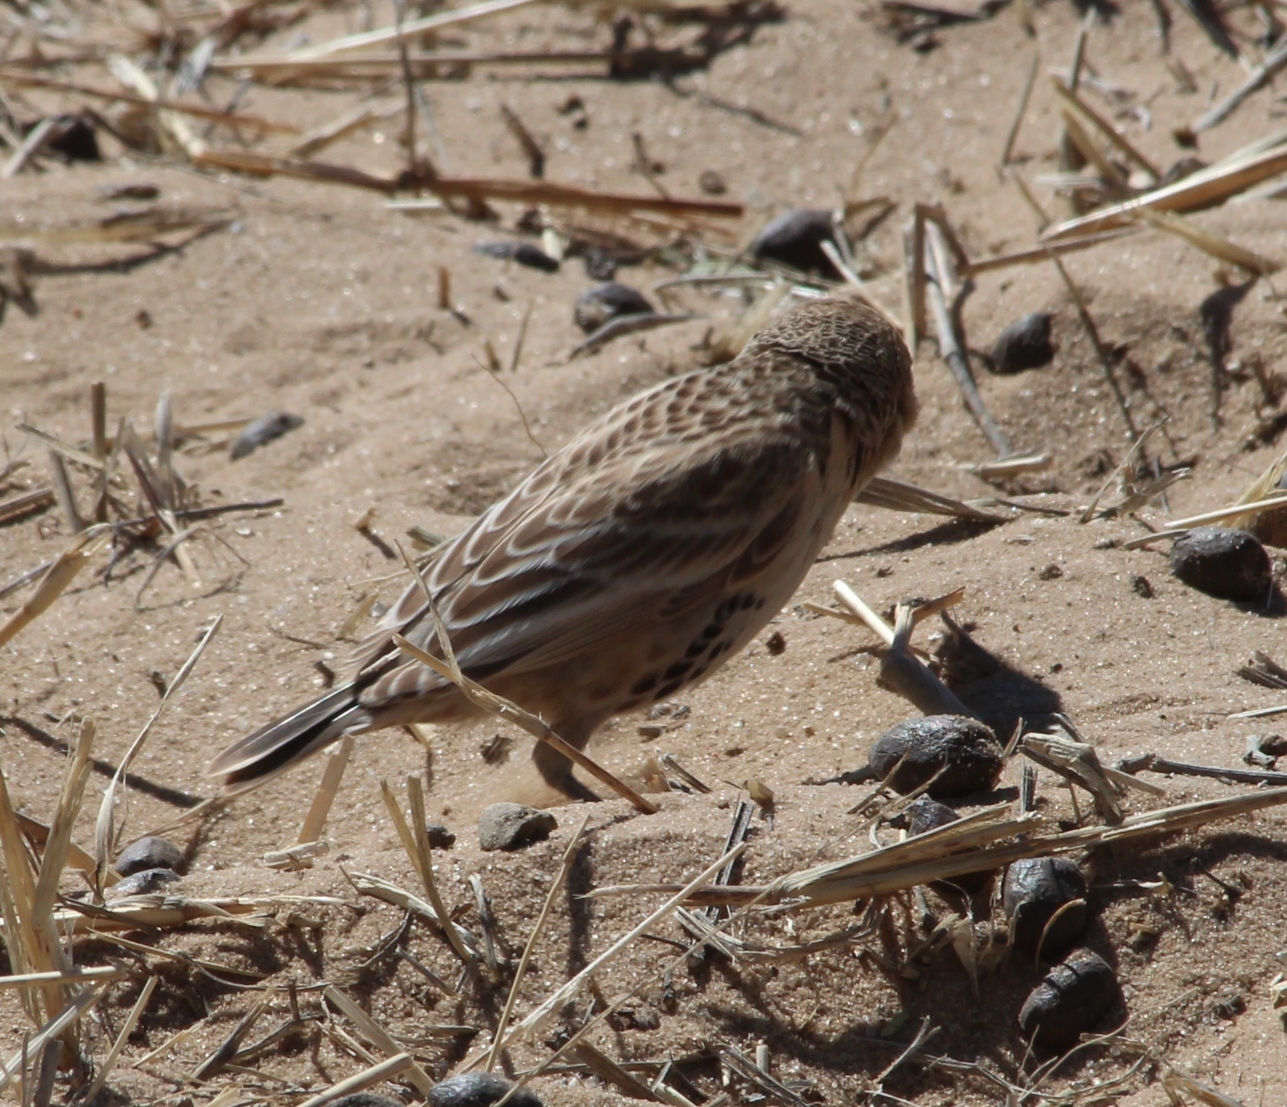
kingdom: Animalia
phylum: Chordata
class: Aves
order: Passeriformes
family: Passeridae
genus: Philetairus
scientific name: Philetairus socius
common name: Sociable weaver
